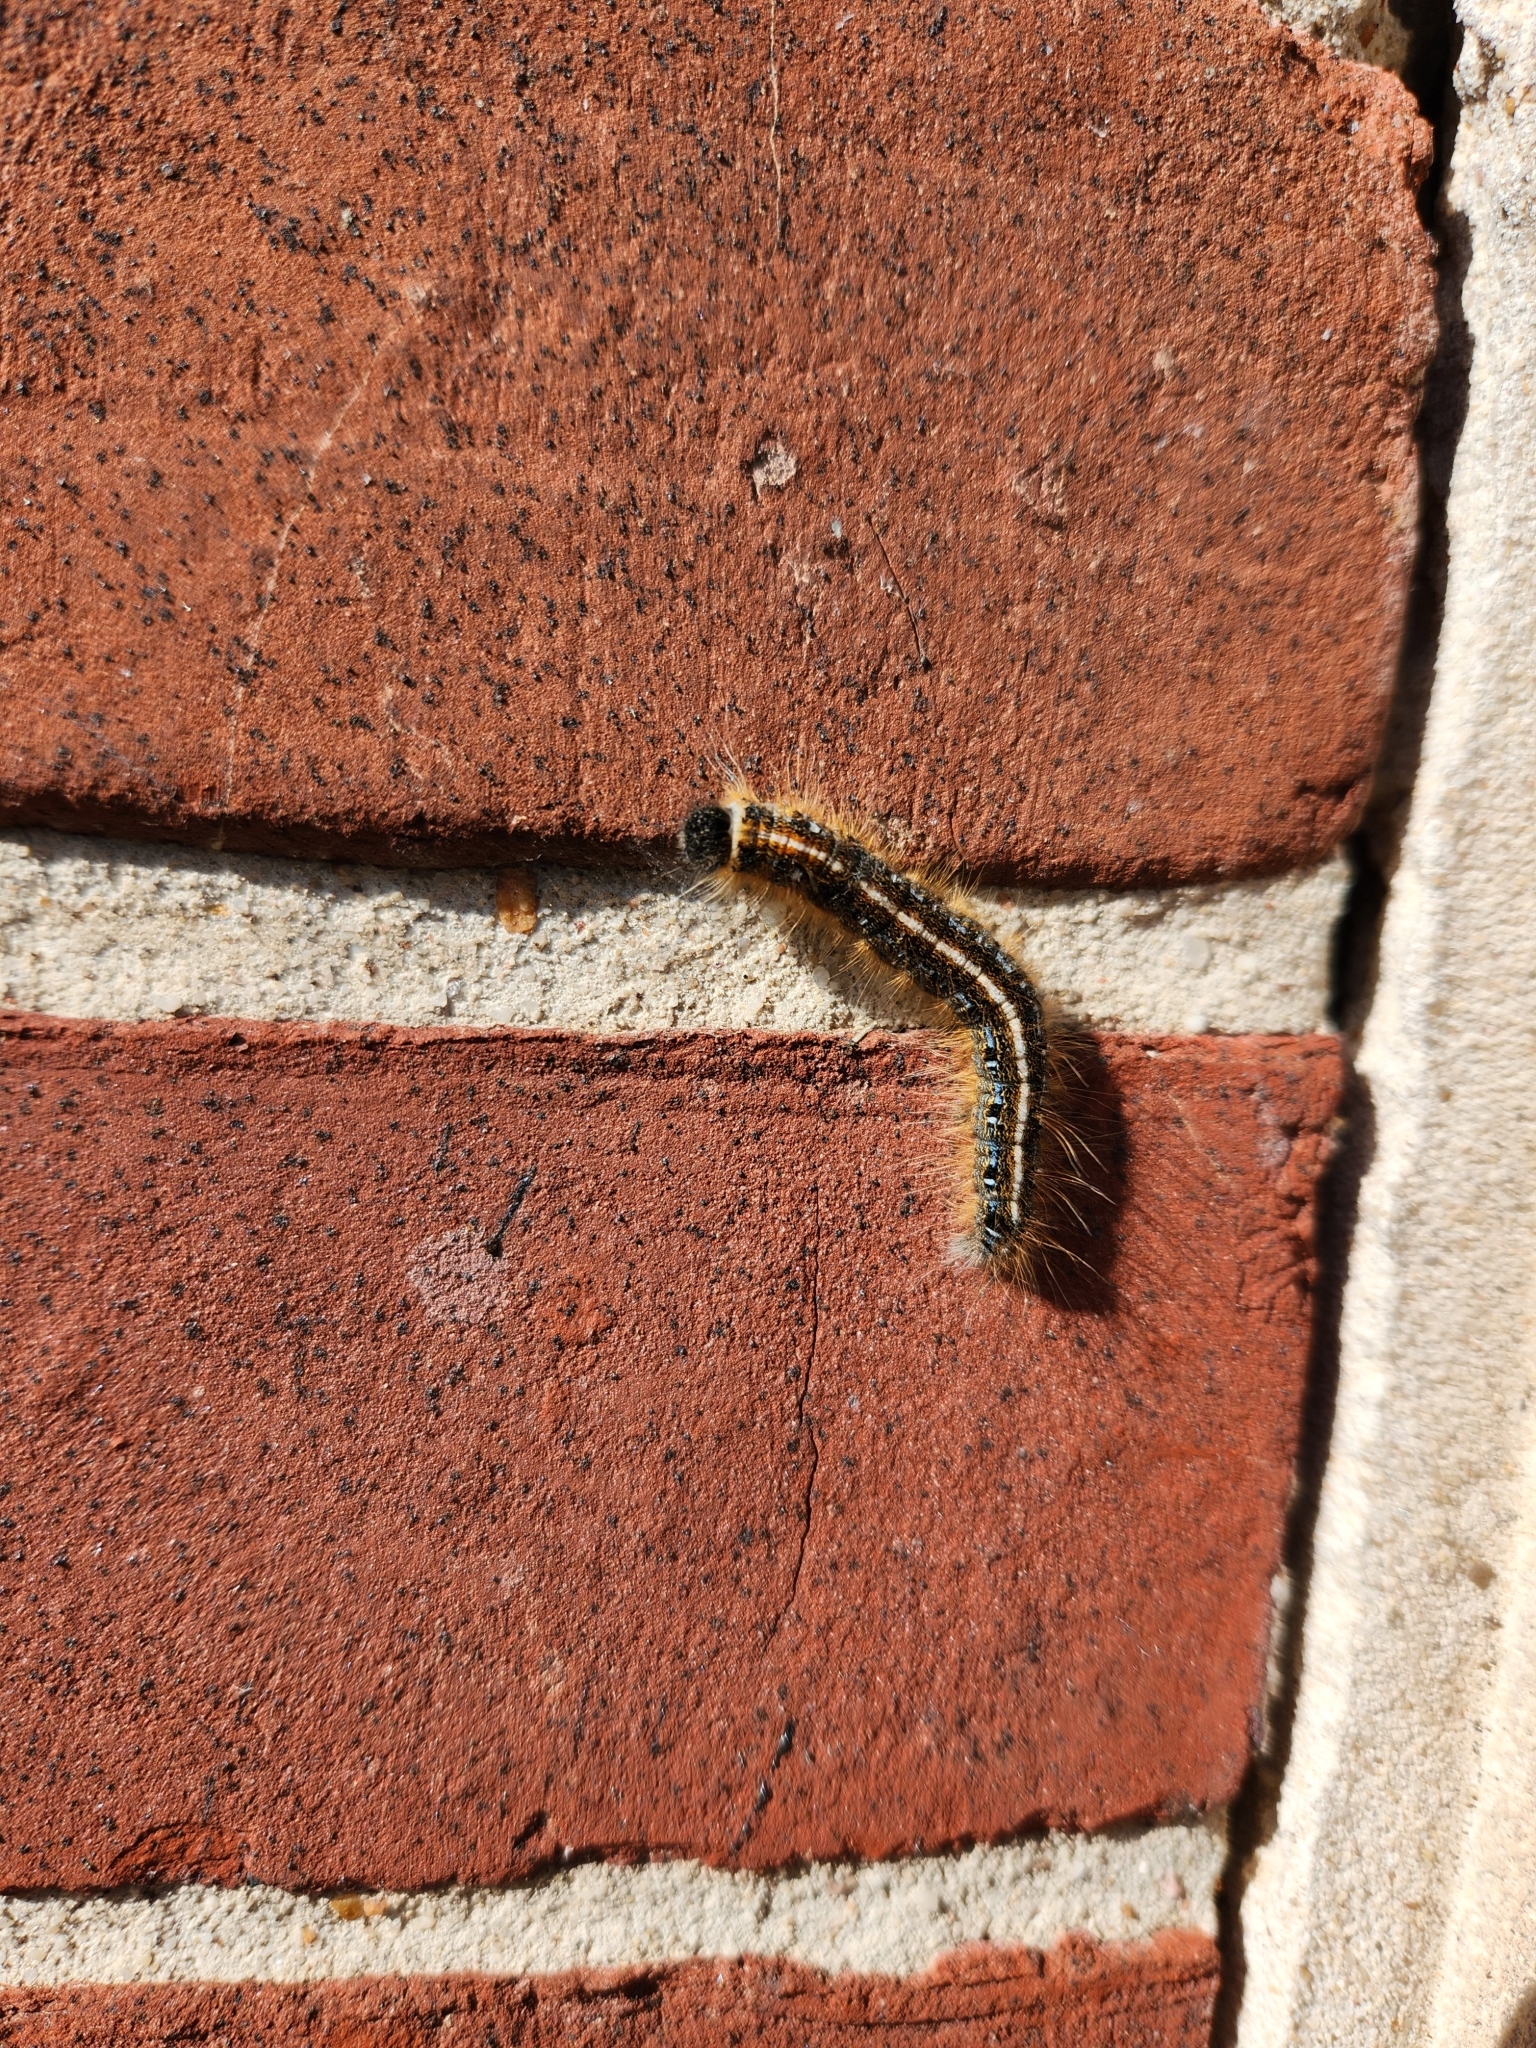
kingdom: Animalia
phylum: Arthropoda
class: Insecta
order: Lepidoptera
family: Lasiocampidae
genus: Malacosoma
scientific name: Malacosoma americana
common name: Eastern tent caterpillar moth
